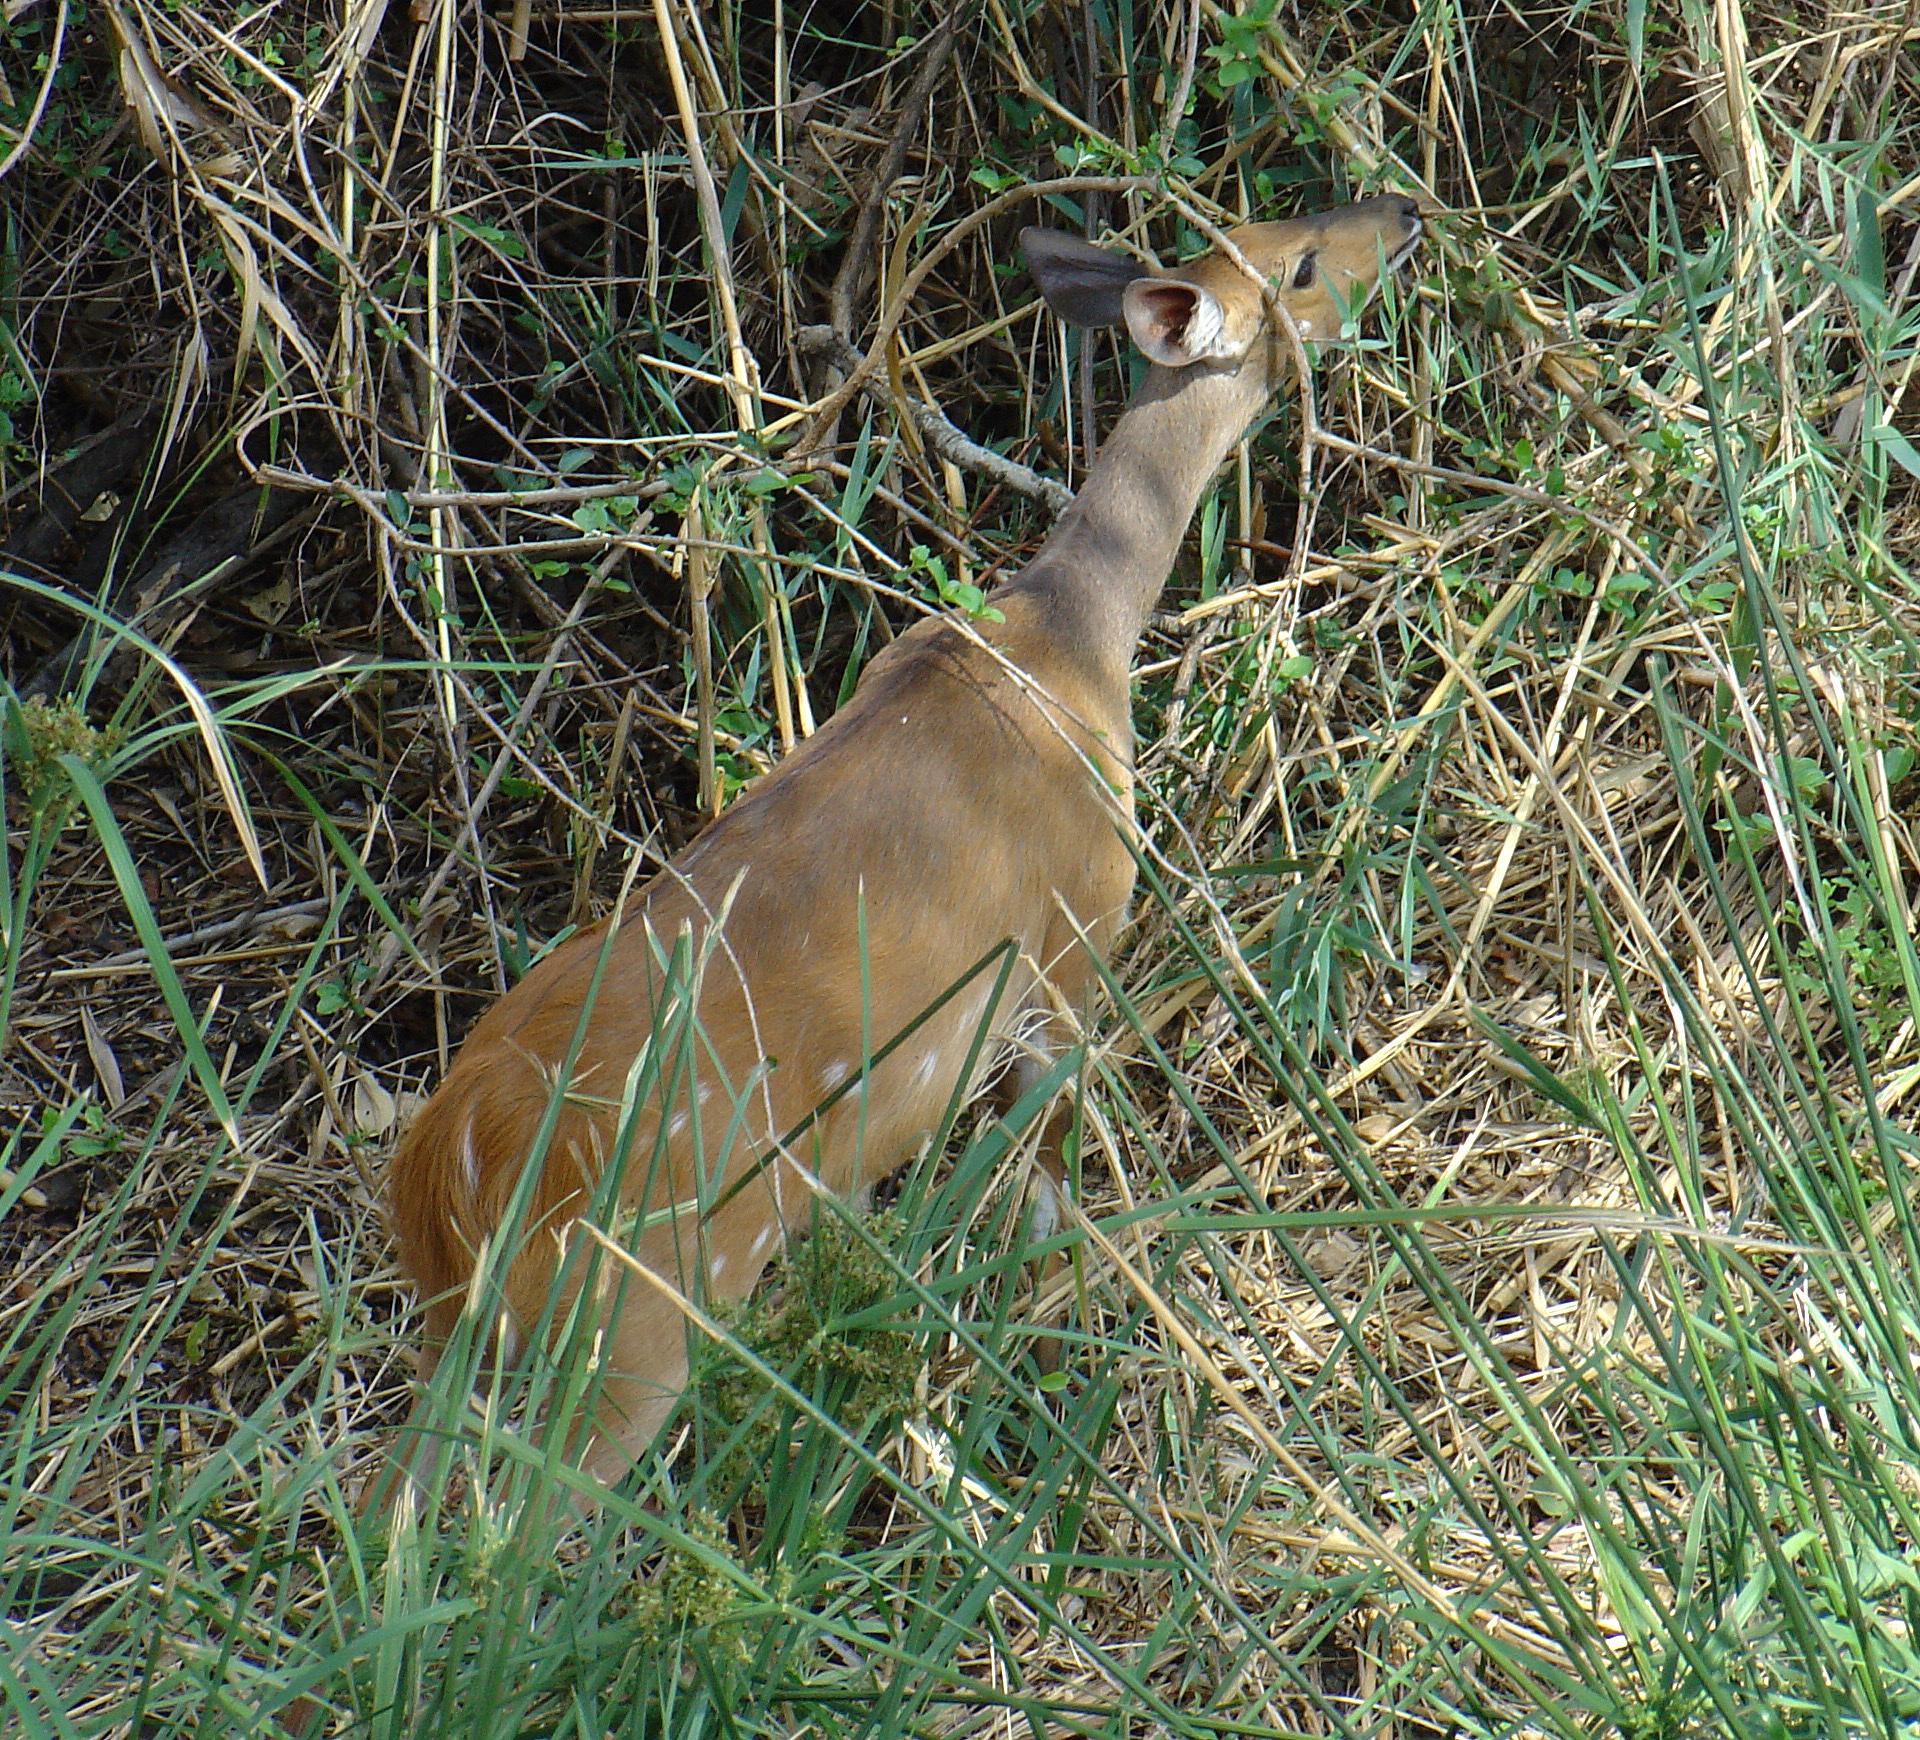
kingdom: Animalia
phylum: Chordata
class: Mammalia
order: Artiodactyla
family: Bovidae
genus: Tragelaphus
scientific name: Tragelaphus scriptus
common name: Bushbuck
